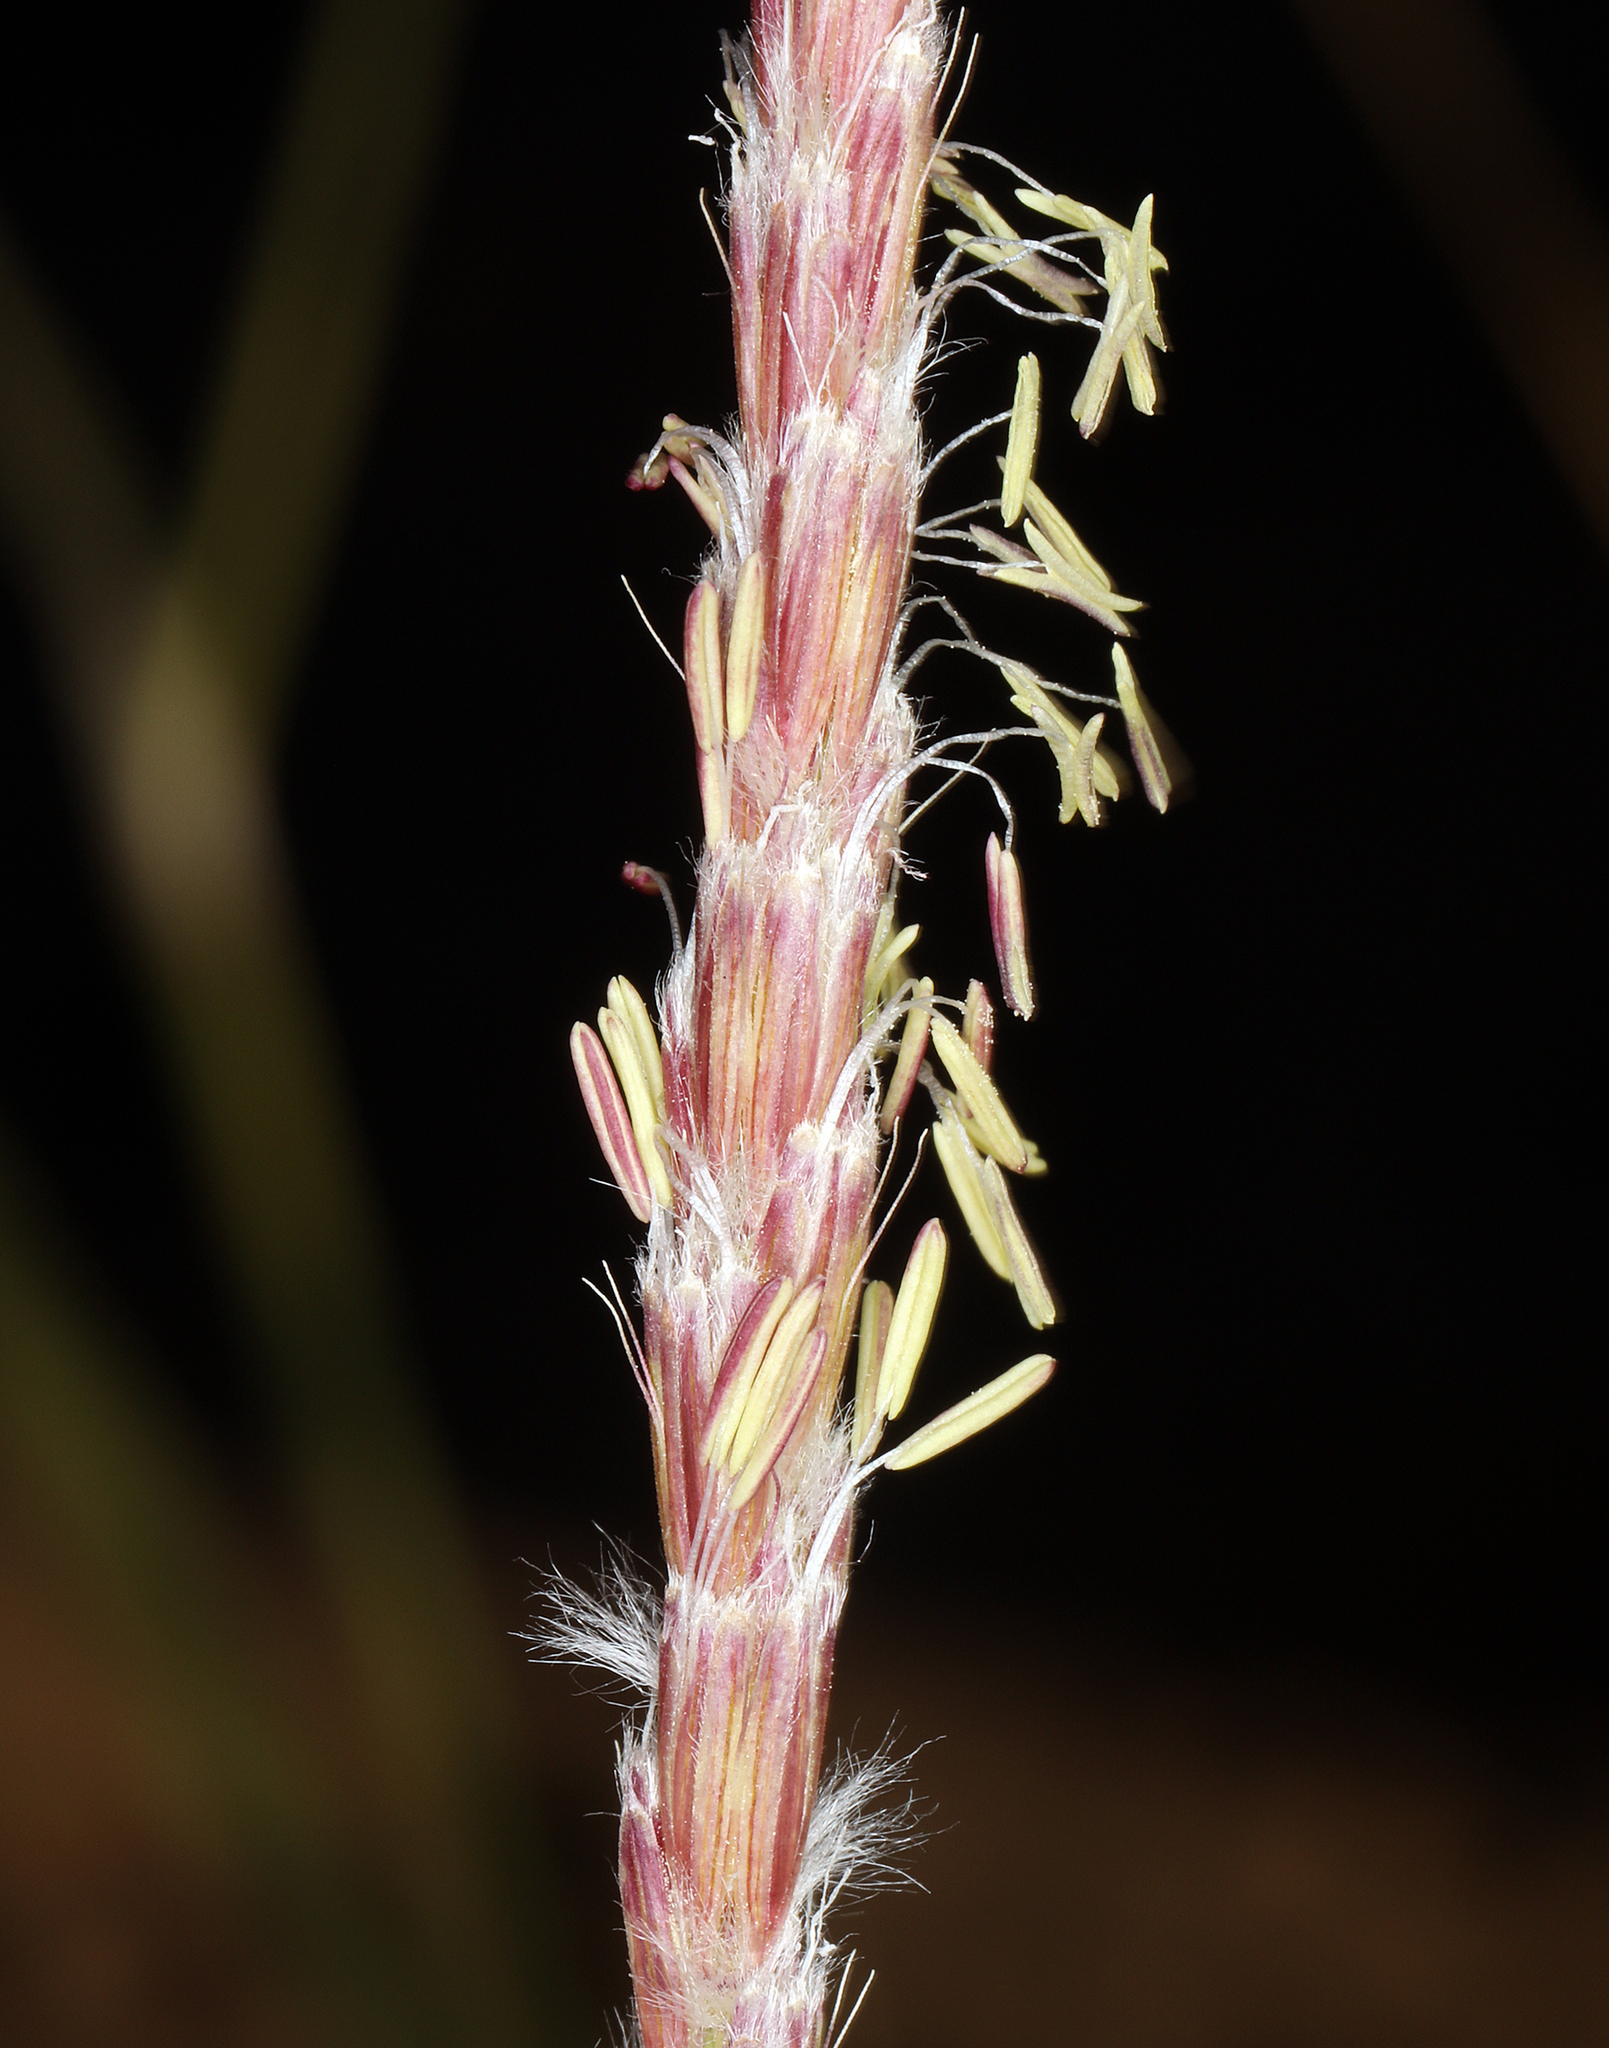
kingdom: Plantae
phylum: Tracheophyta
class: Liliopsida
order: Poales
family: Poaceae
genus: Hilaria
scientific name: Hilaria rigida
